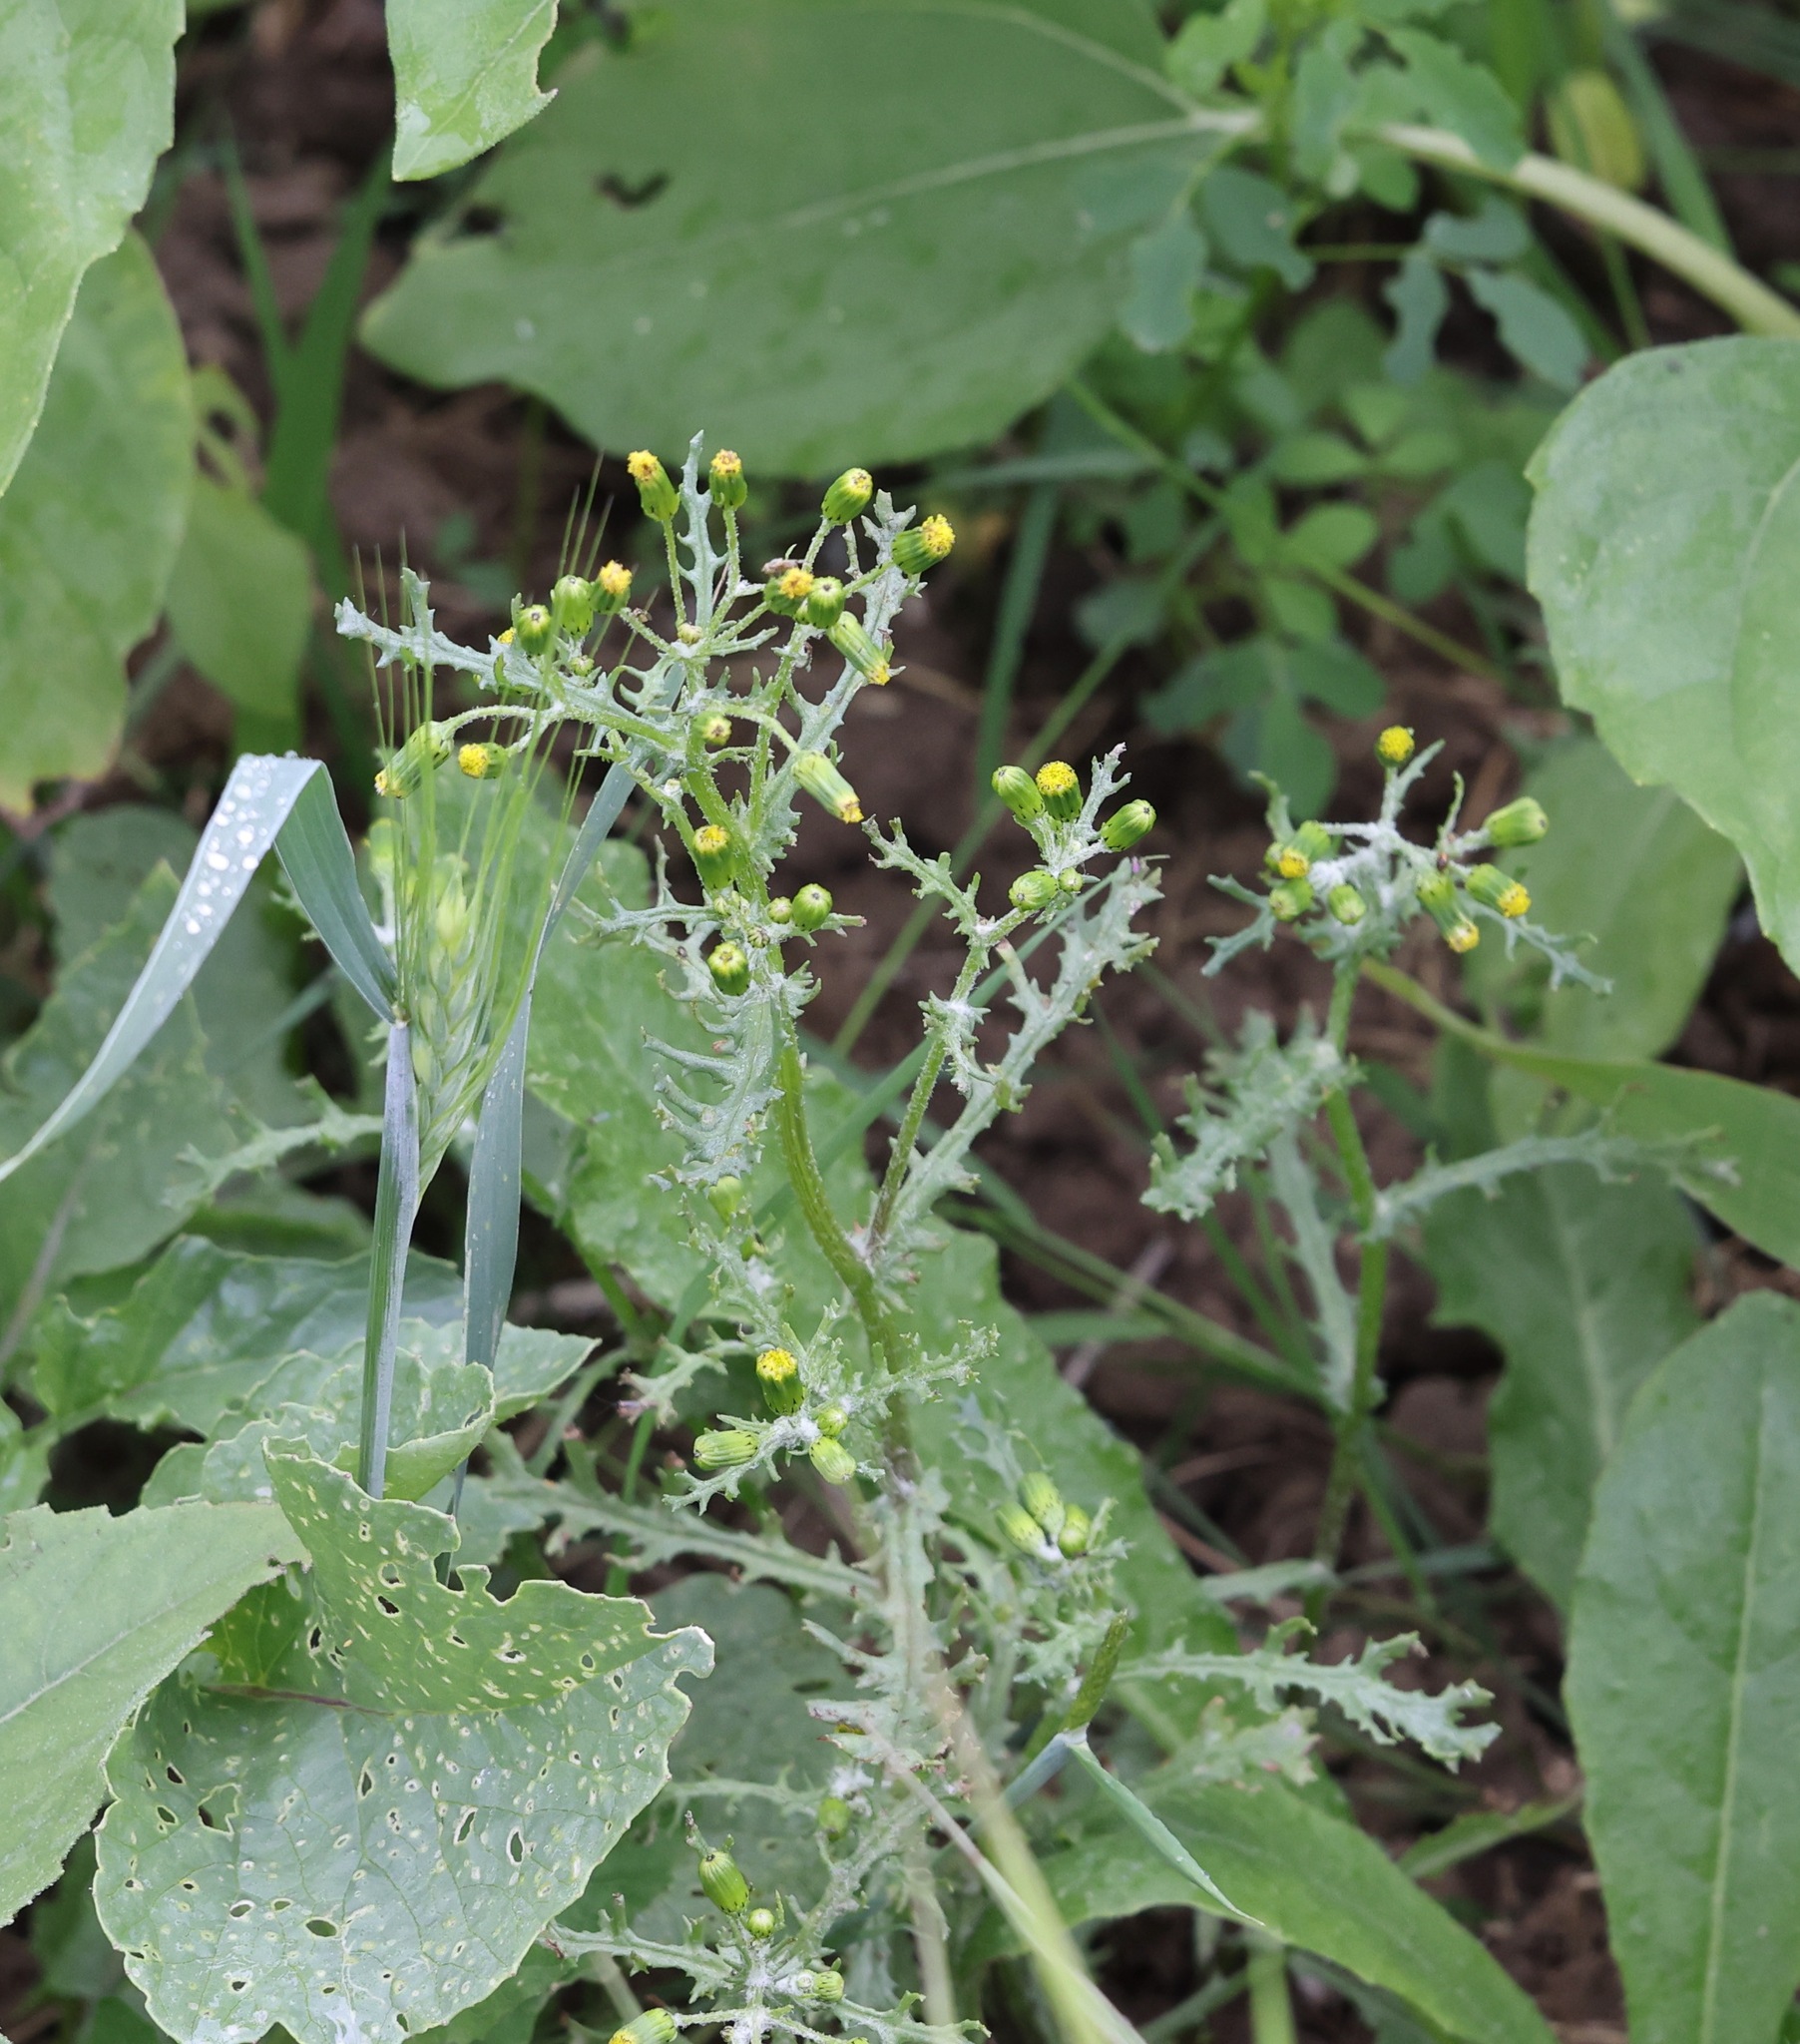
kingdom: Plantae
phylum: Tracheophyta
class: Magnoliopsida
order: Asterales
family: Asteraceae
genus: Senecio
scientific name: Senecio vulgaris
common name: Old-man-in-the-spring
